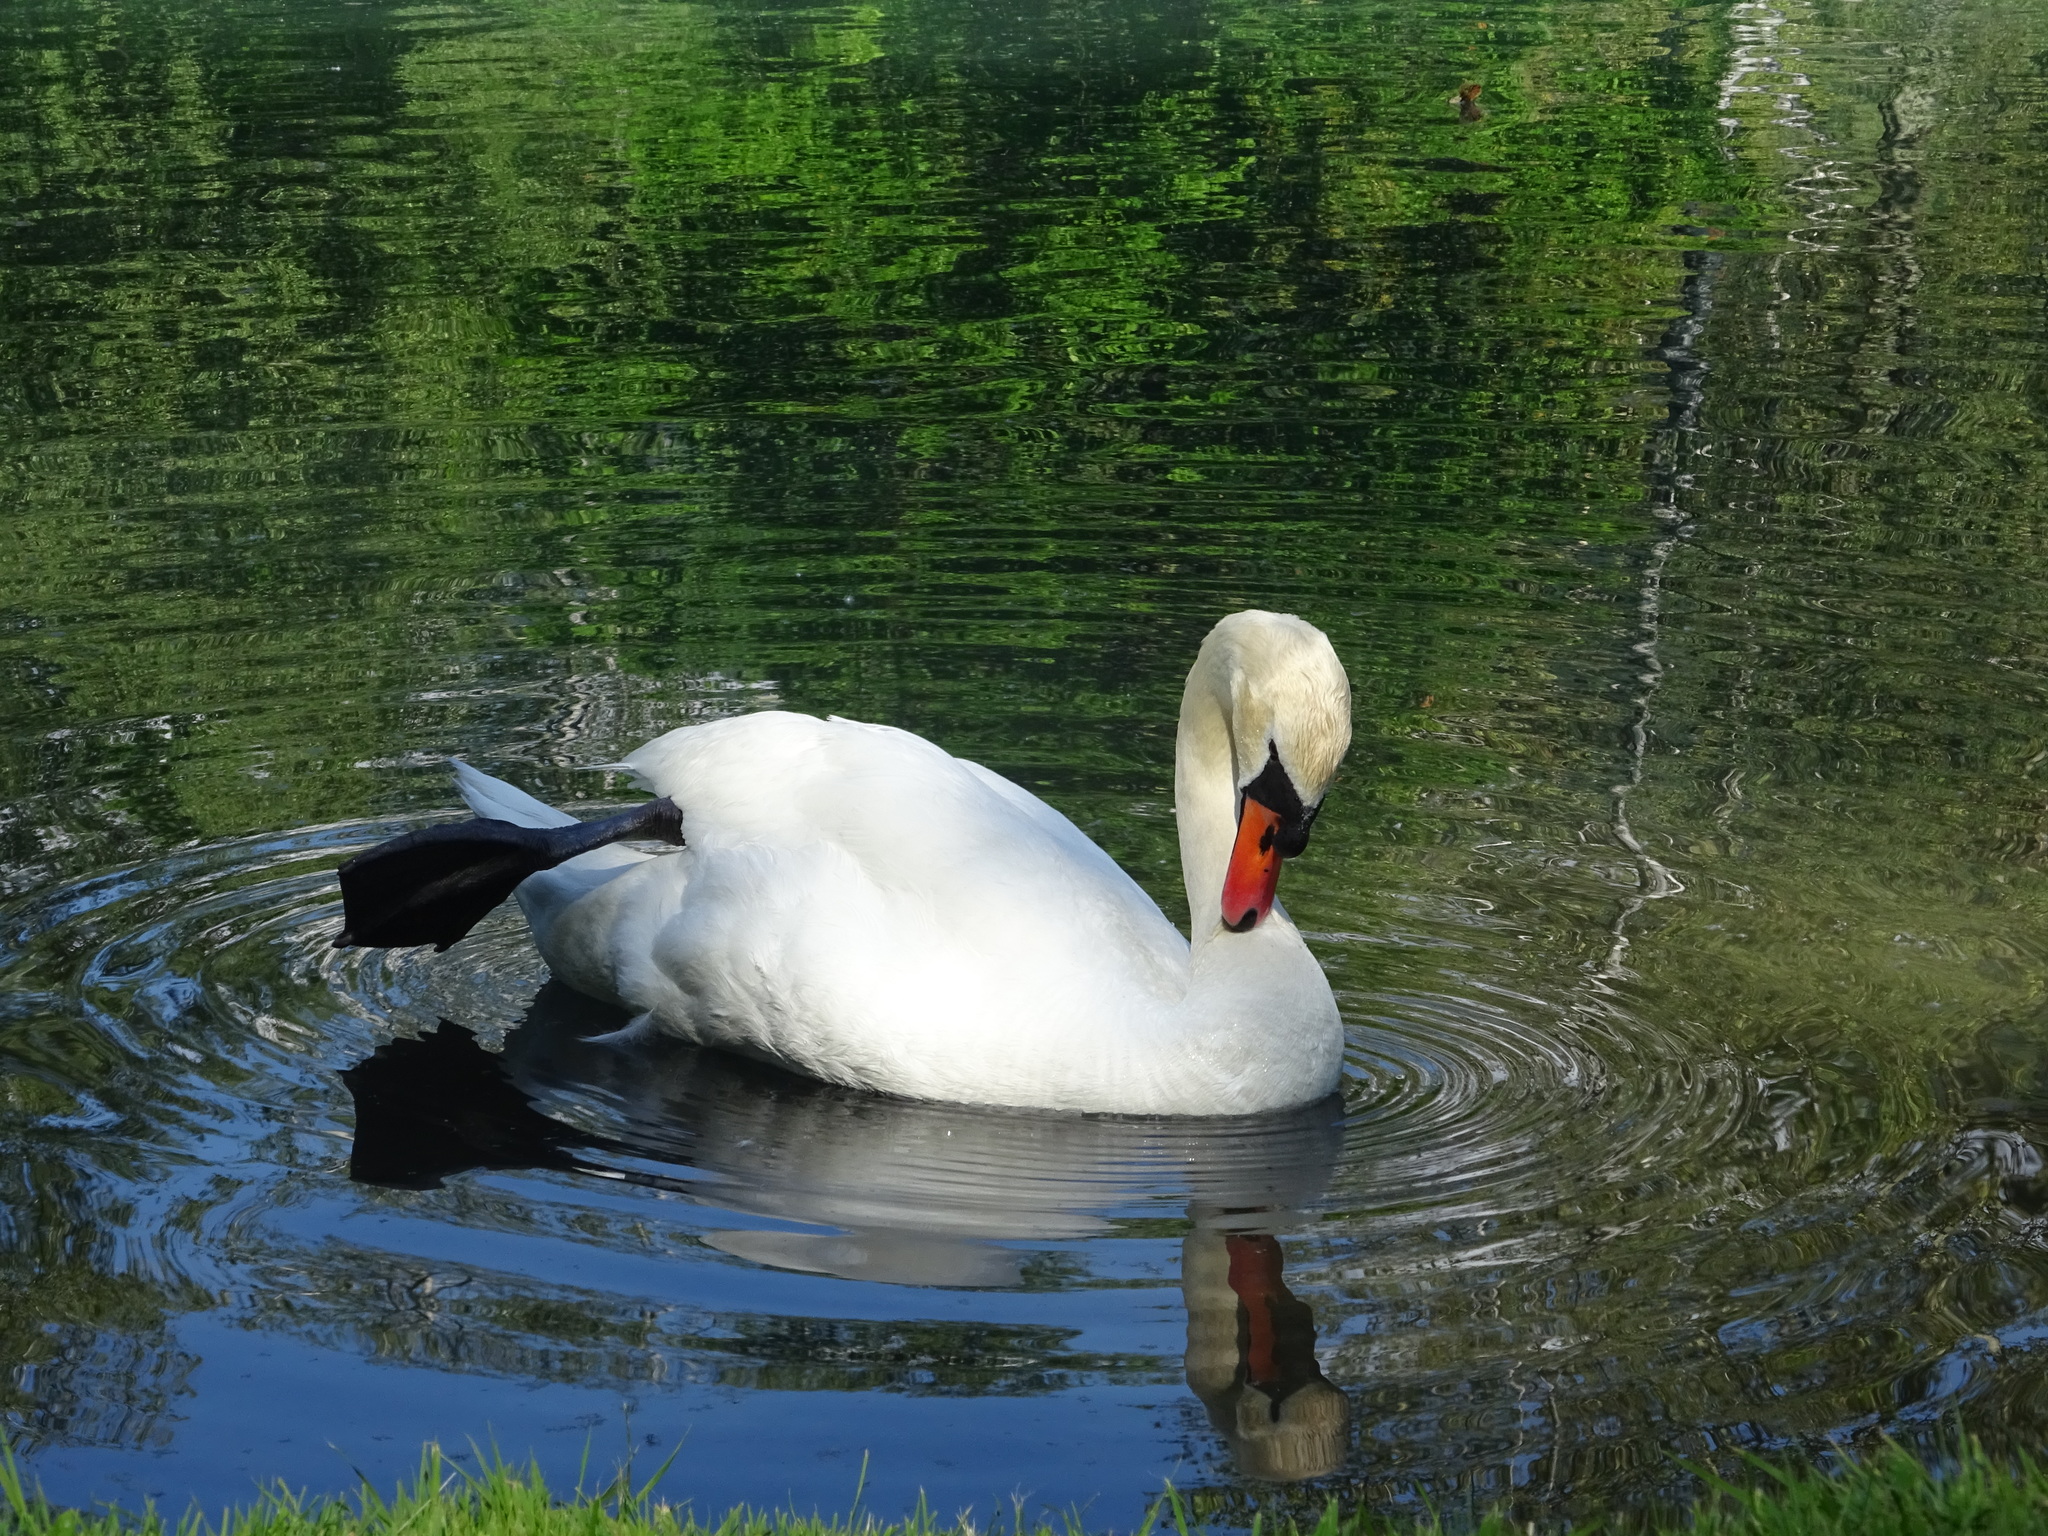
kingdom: Animalia
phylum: Chordata
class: Aves
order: Anseriformes
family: Anatidae
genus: Cygnus
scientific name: Cygnus olor
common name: Mute swan
